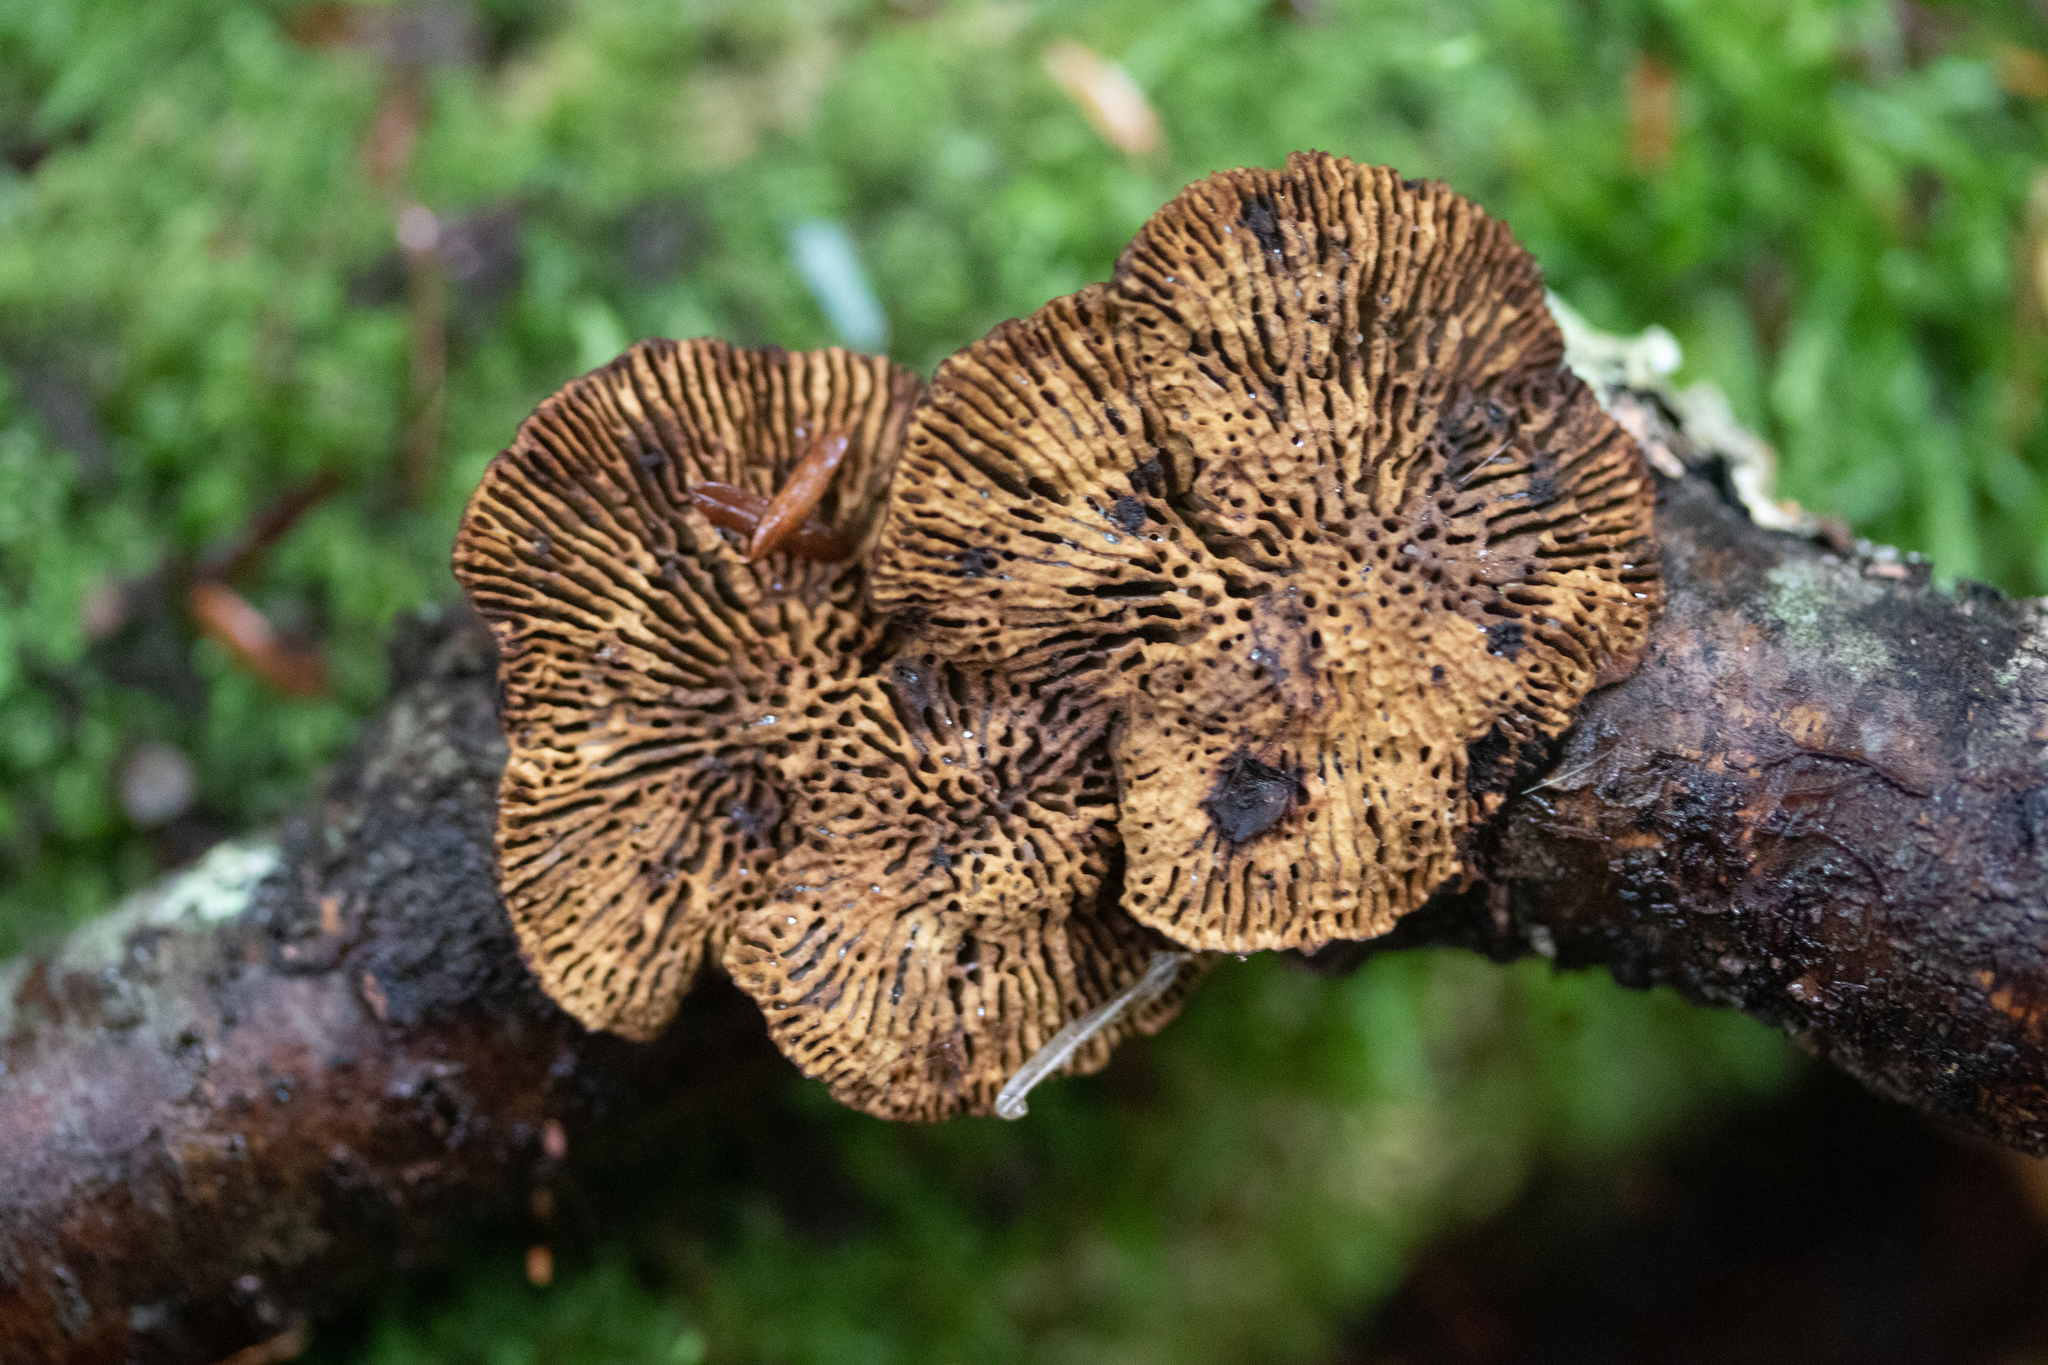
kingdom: Fungi
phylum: Basidiomycota
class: Agaricomycetes
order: Polyporales
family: Fomitopsidaceae
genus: Fomitopsis
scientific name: Fomitopsis
